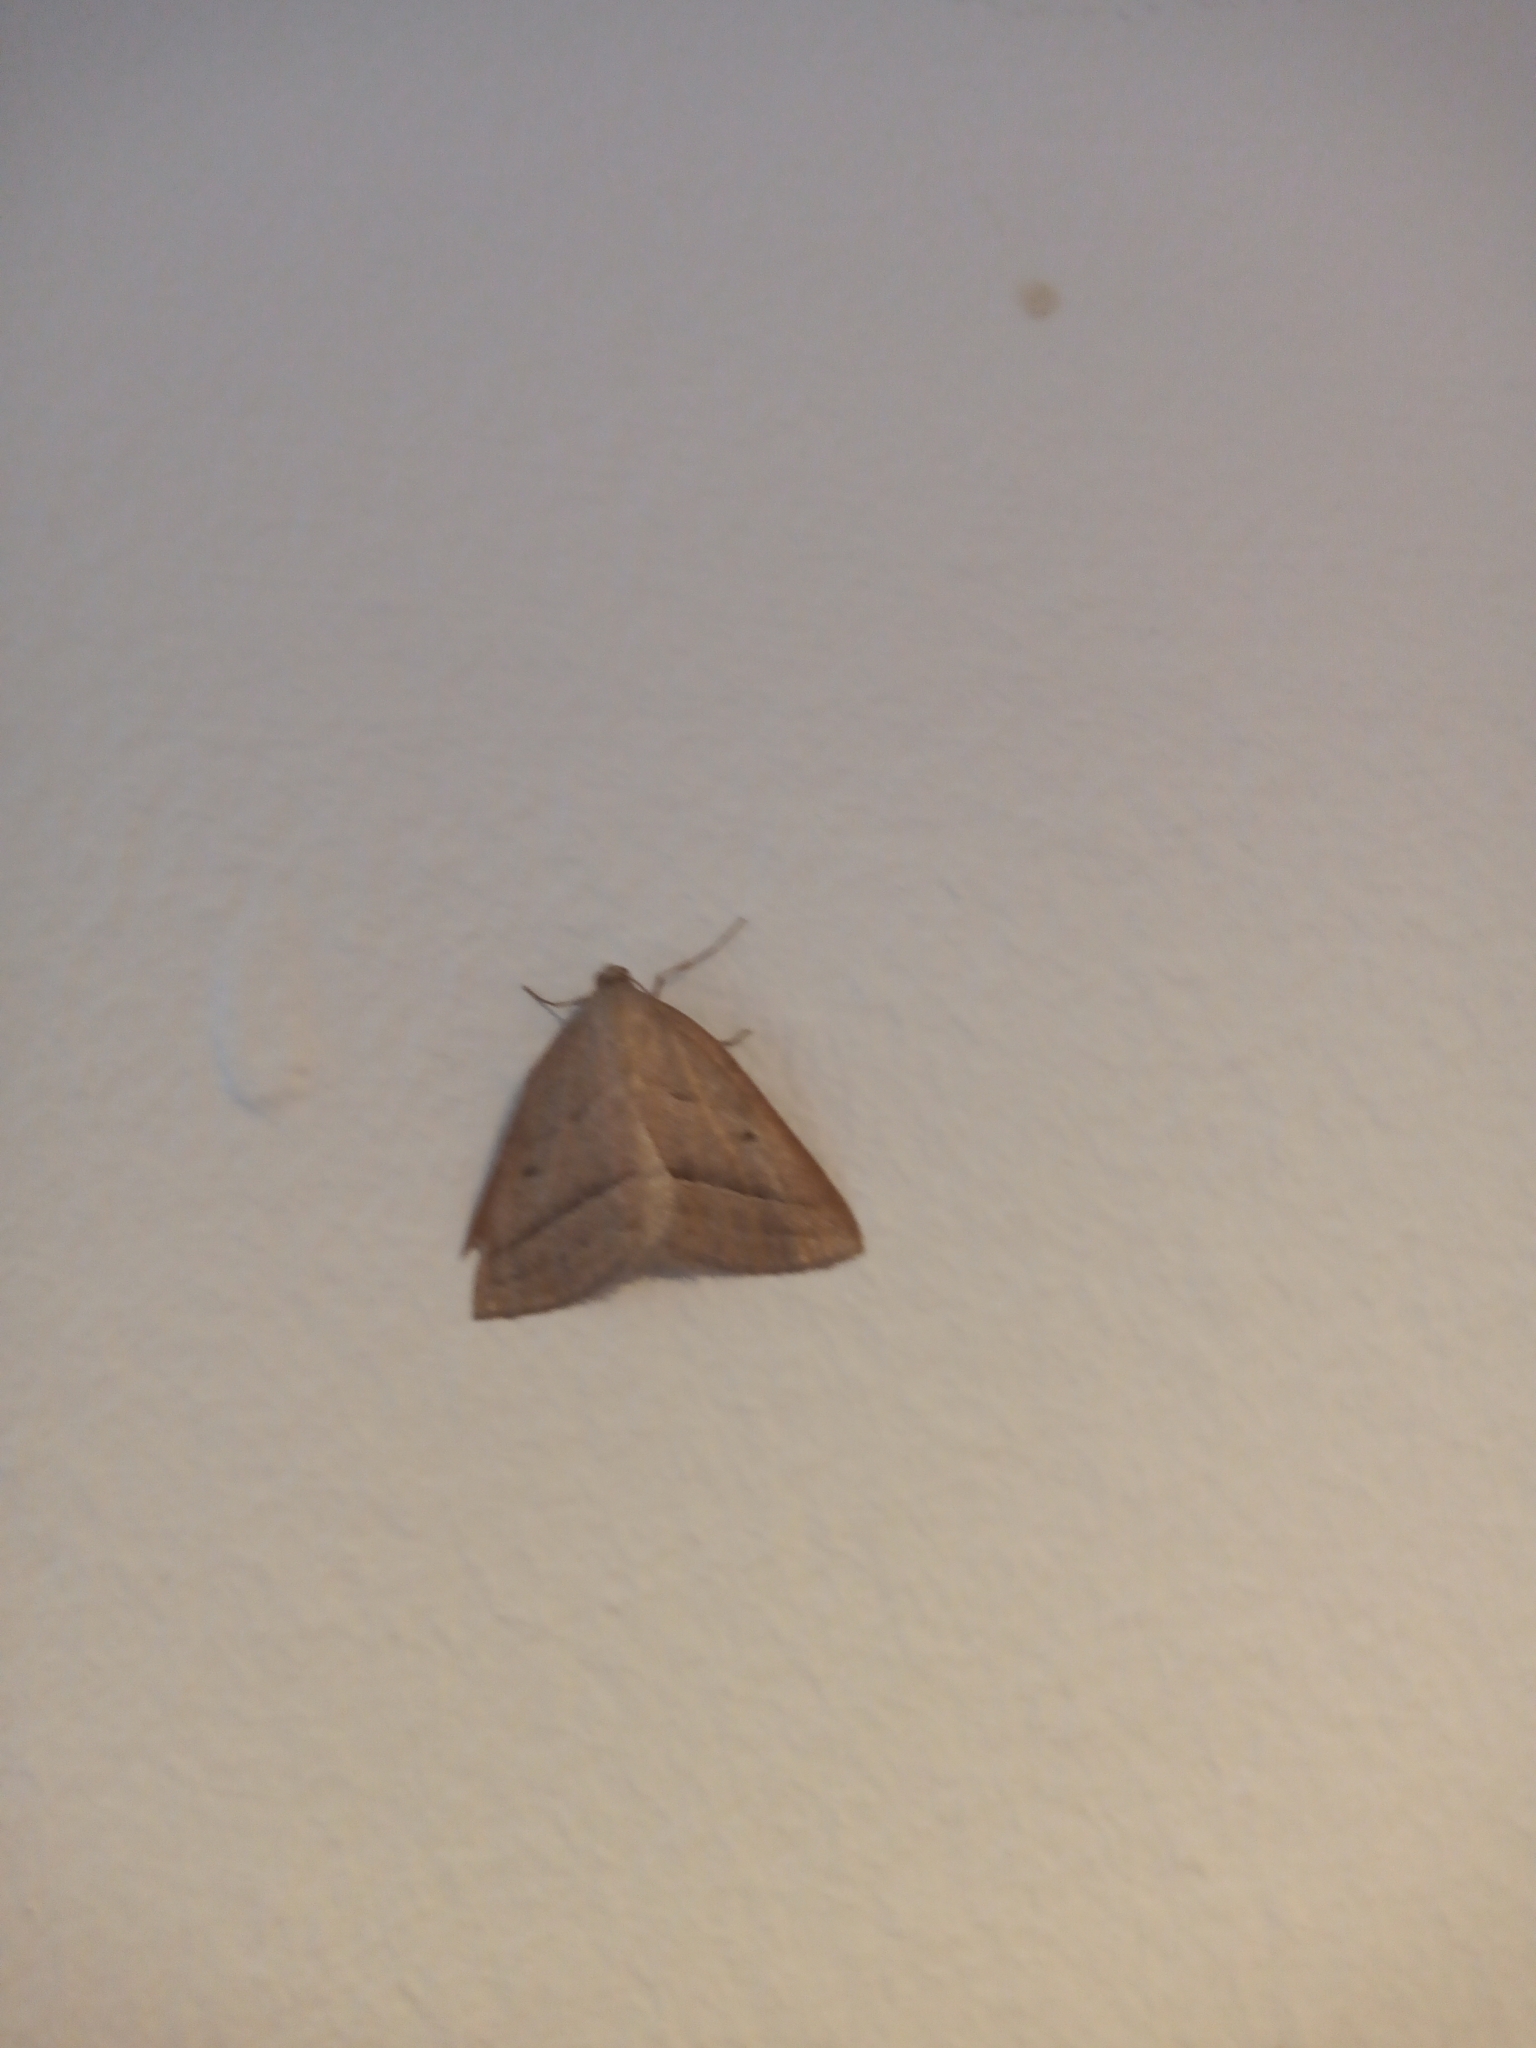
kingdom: Animalia
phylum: Arthropoda
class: Insecta
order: Lepidoptera
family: Pterophoridae
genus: Pterophorus
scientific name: Pterophorus Petrophora chlorosata
